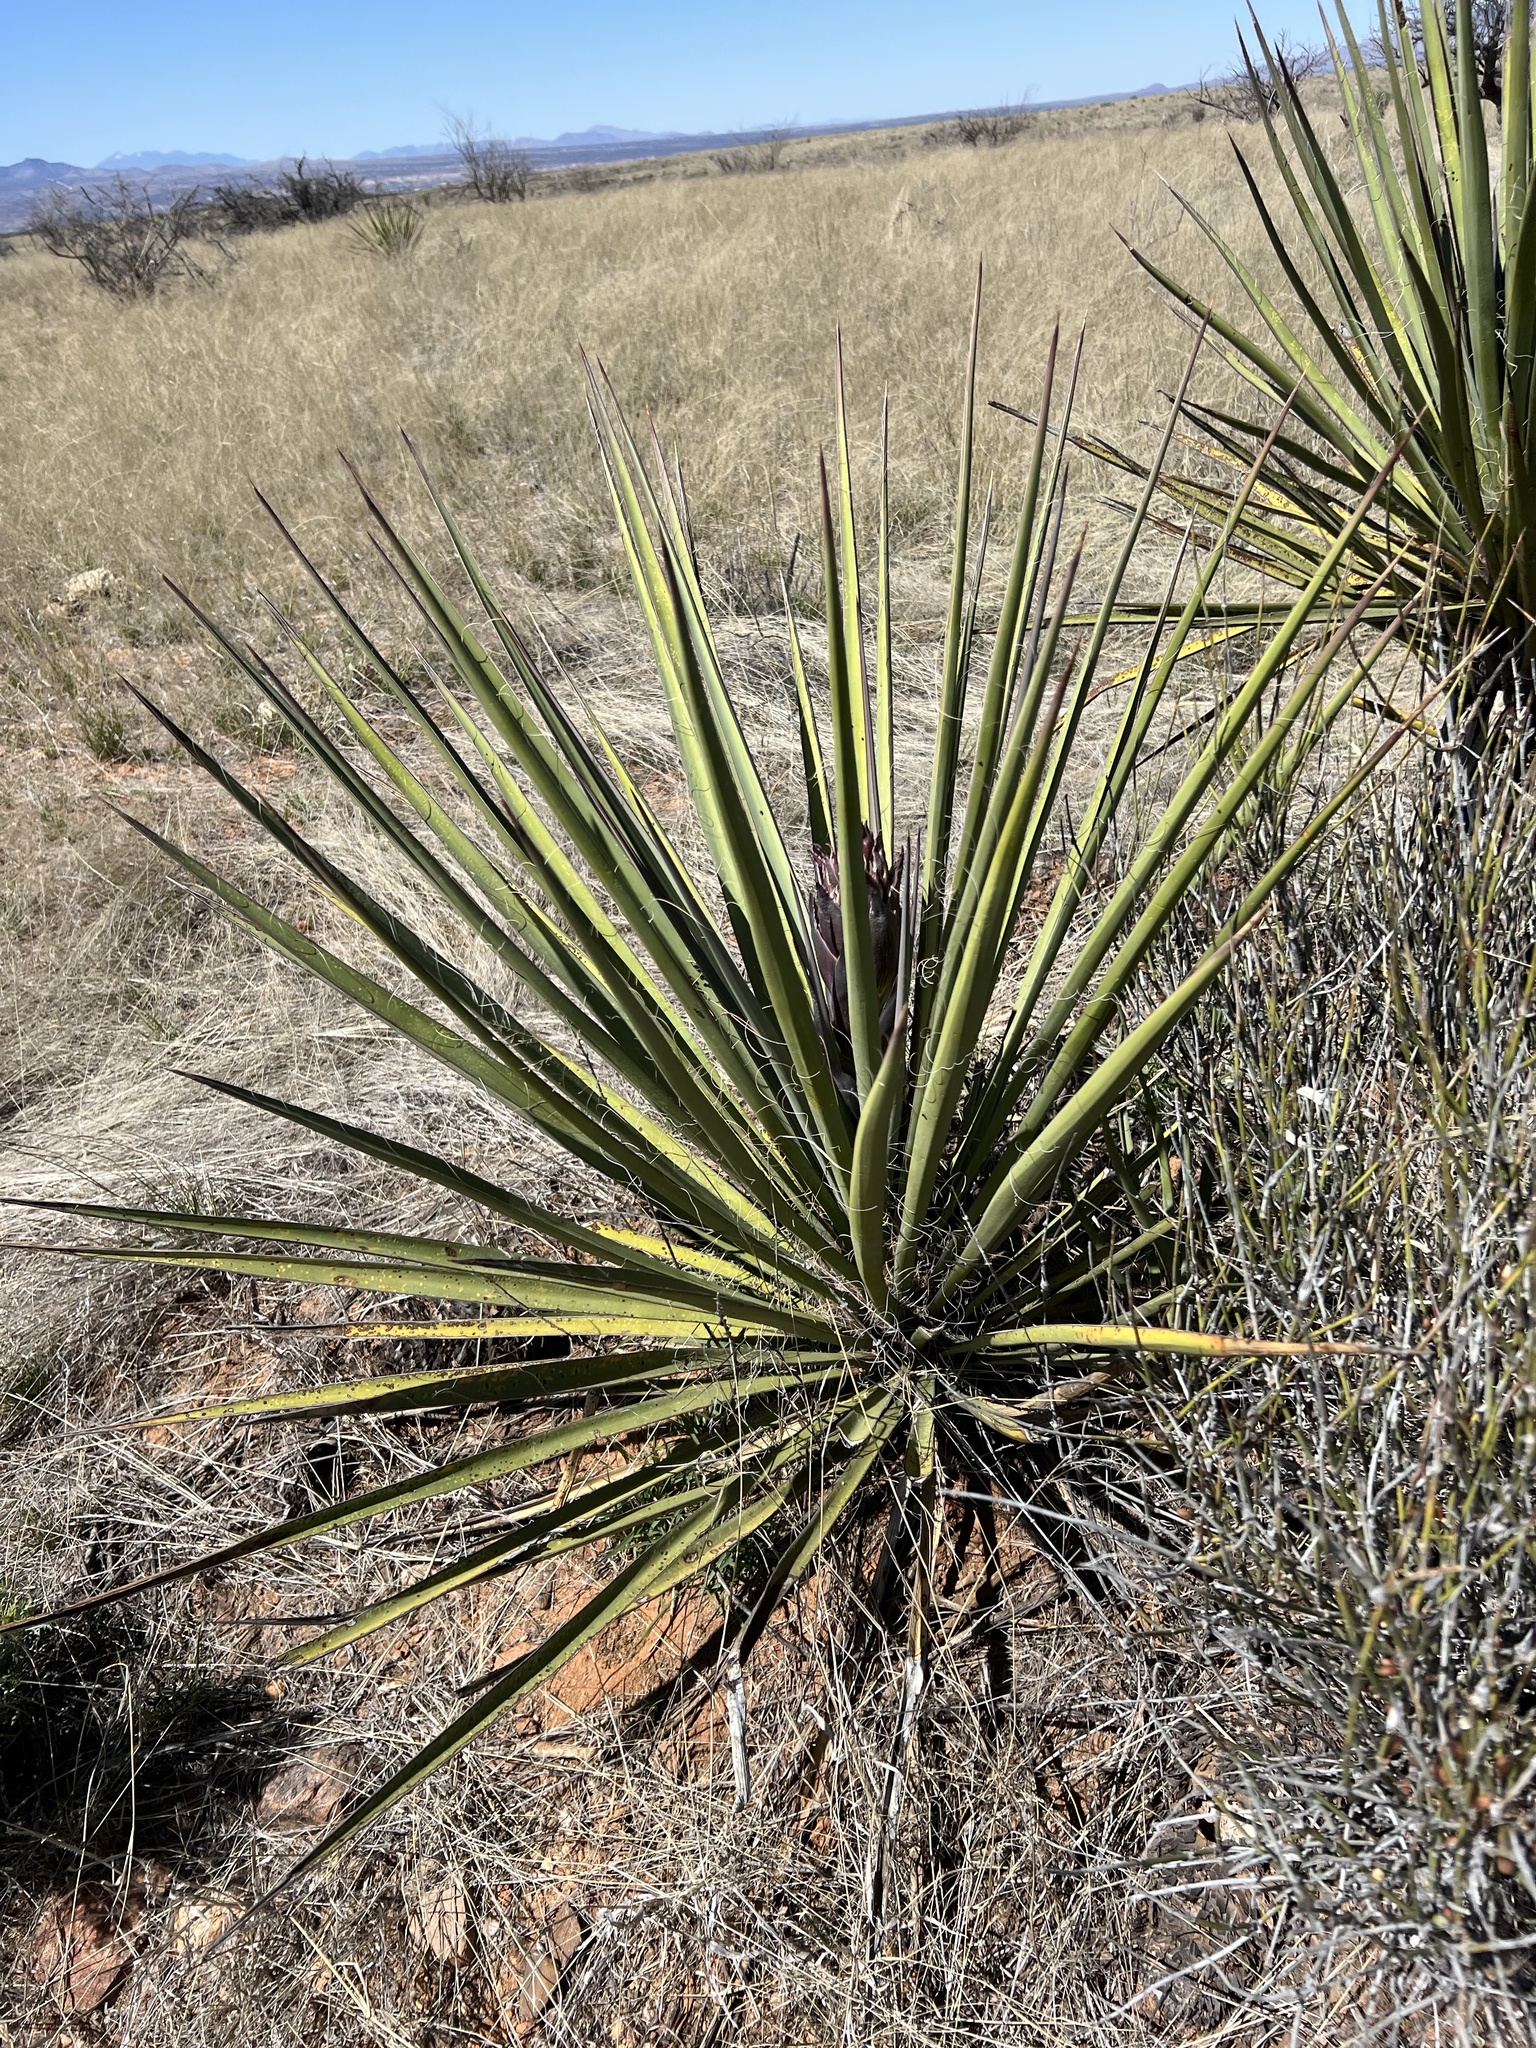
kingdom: Plantae
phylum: Tracheophyta
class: Liliopsida
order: Asparagales
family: Asparagaceae
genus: Yucca
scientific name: Yucca baccata
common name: Banana yucca
